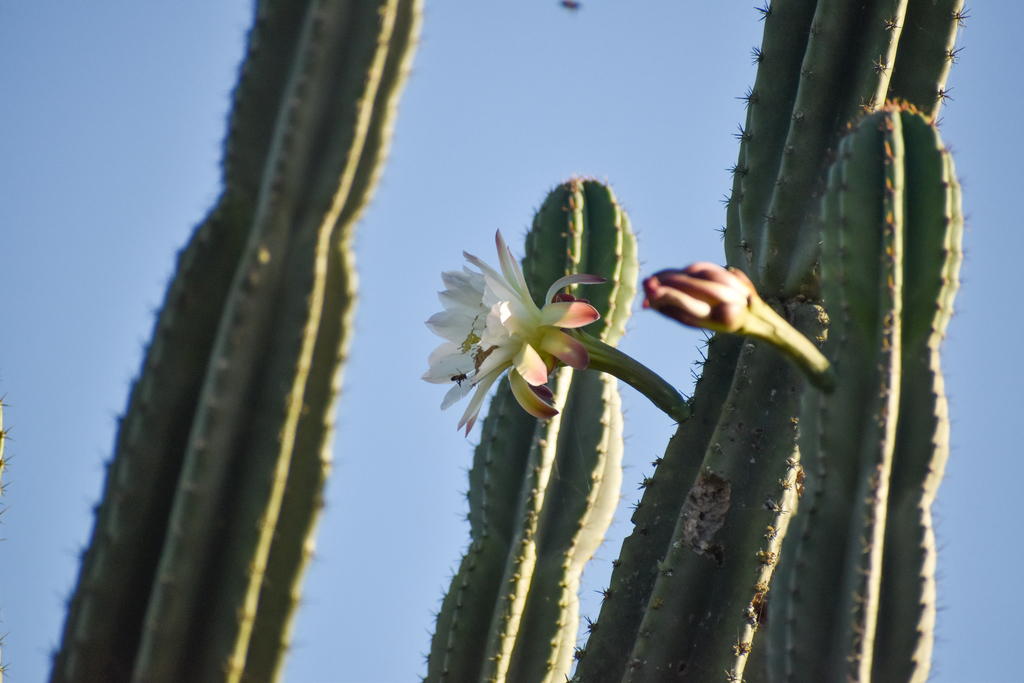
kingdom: Plantae
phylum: Tracheophyta
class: Magnoliopsida
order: Caryophyllales
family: Cactaceae
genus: Cereus
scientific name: Cereus hildmannianus
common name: Hedge cactus
